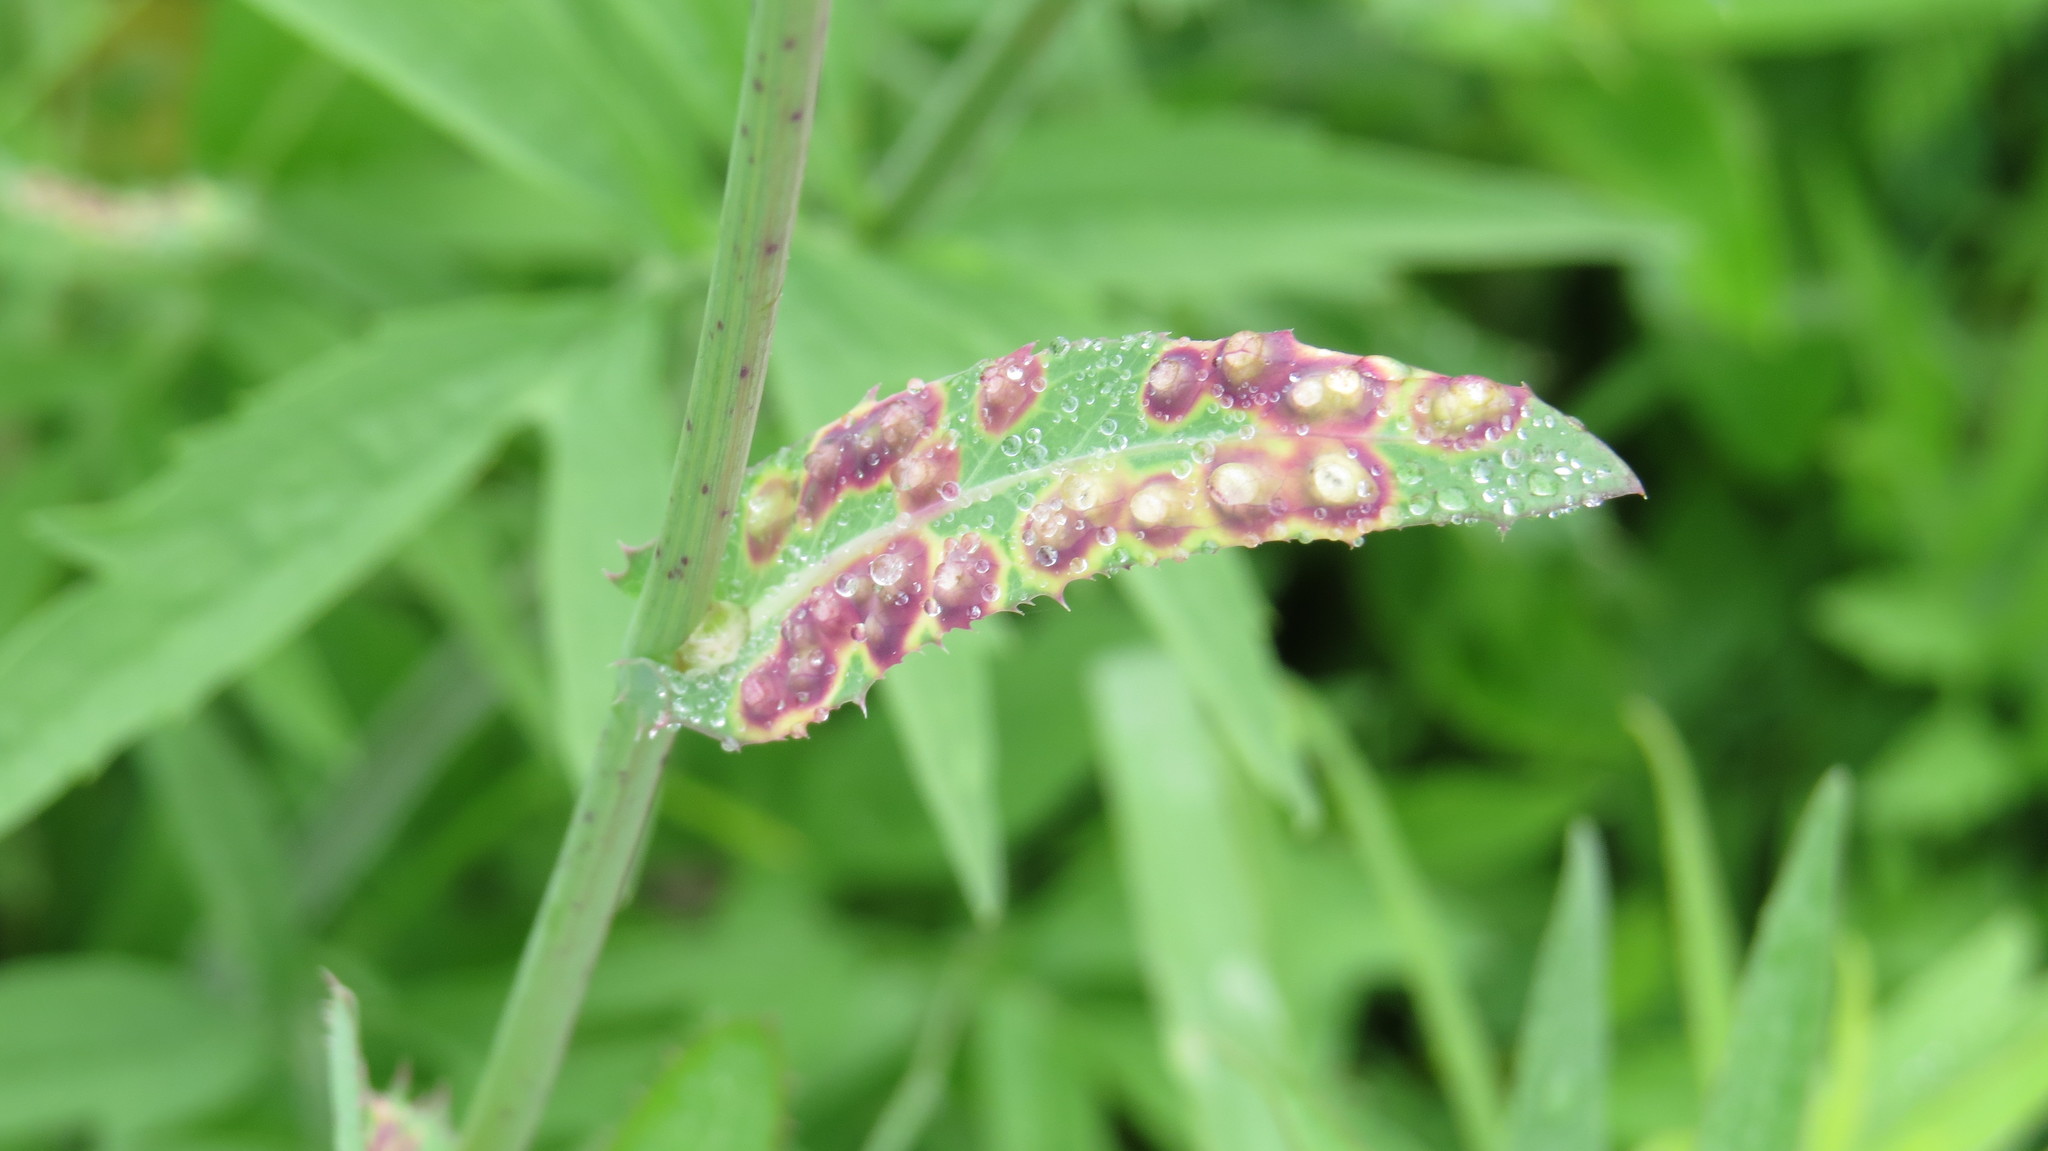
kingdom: Animalia
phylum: Arthropoda
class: Insecta
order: Diptera
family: Cecidomyiidae
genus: Cystiphora
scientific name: Cystiphora sonchi
